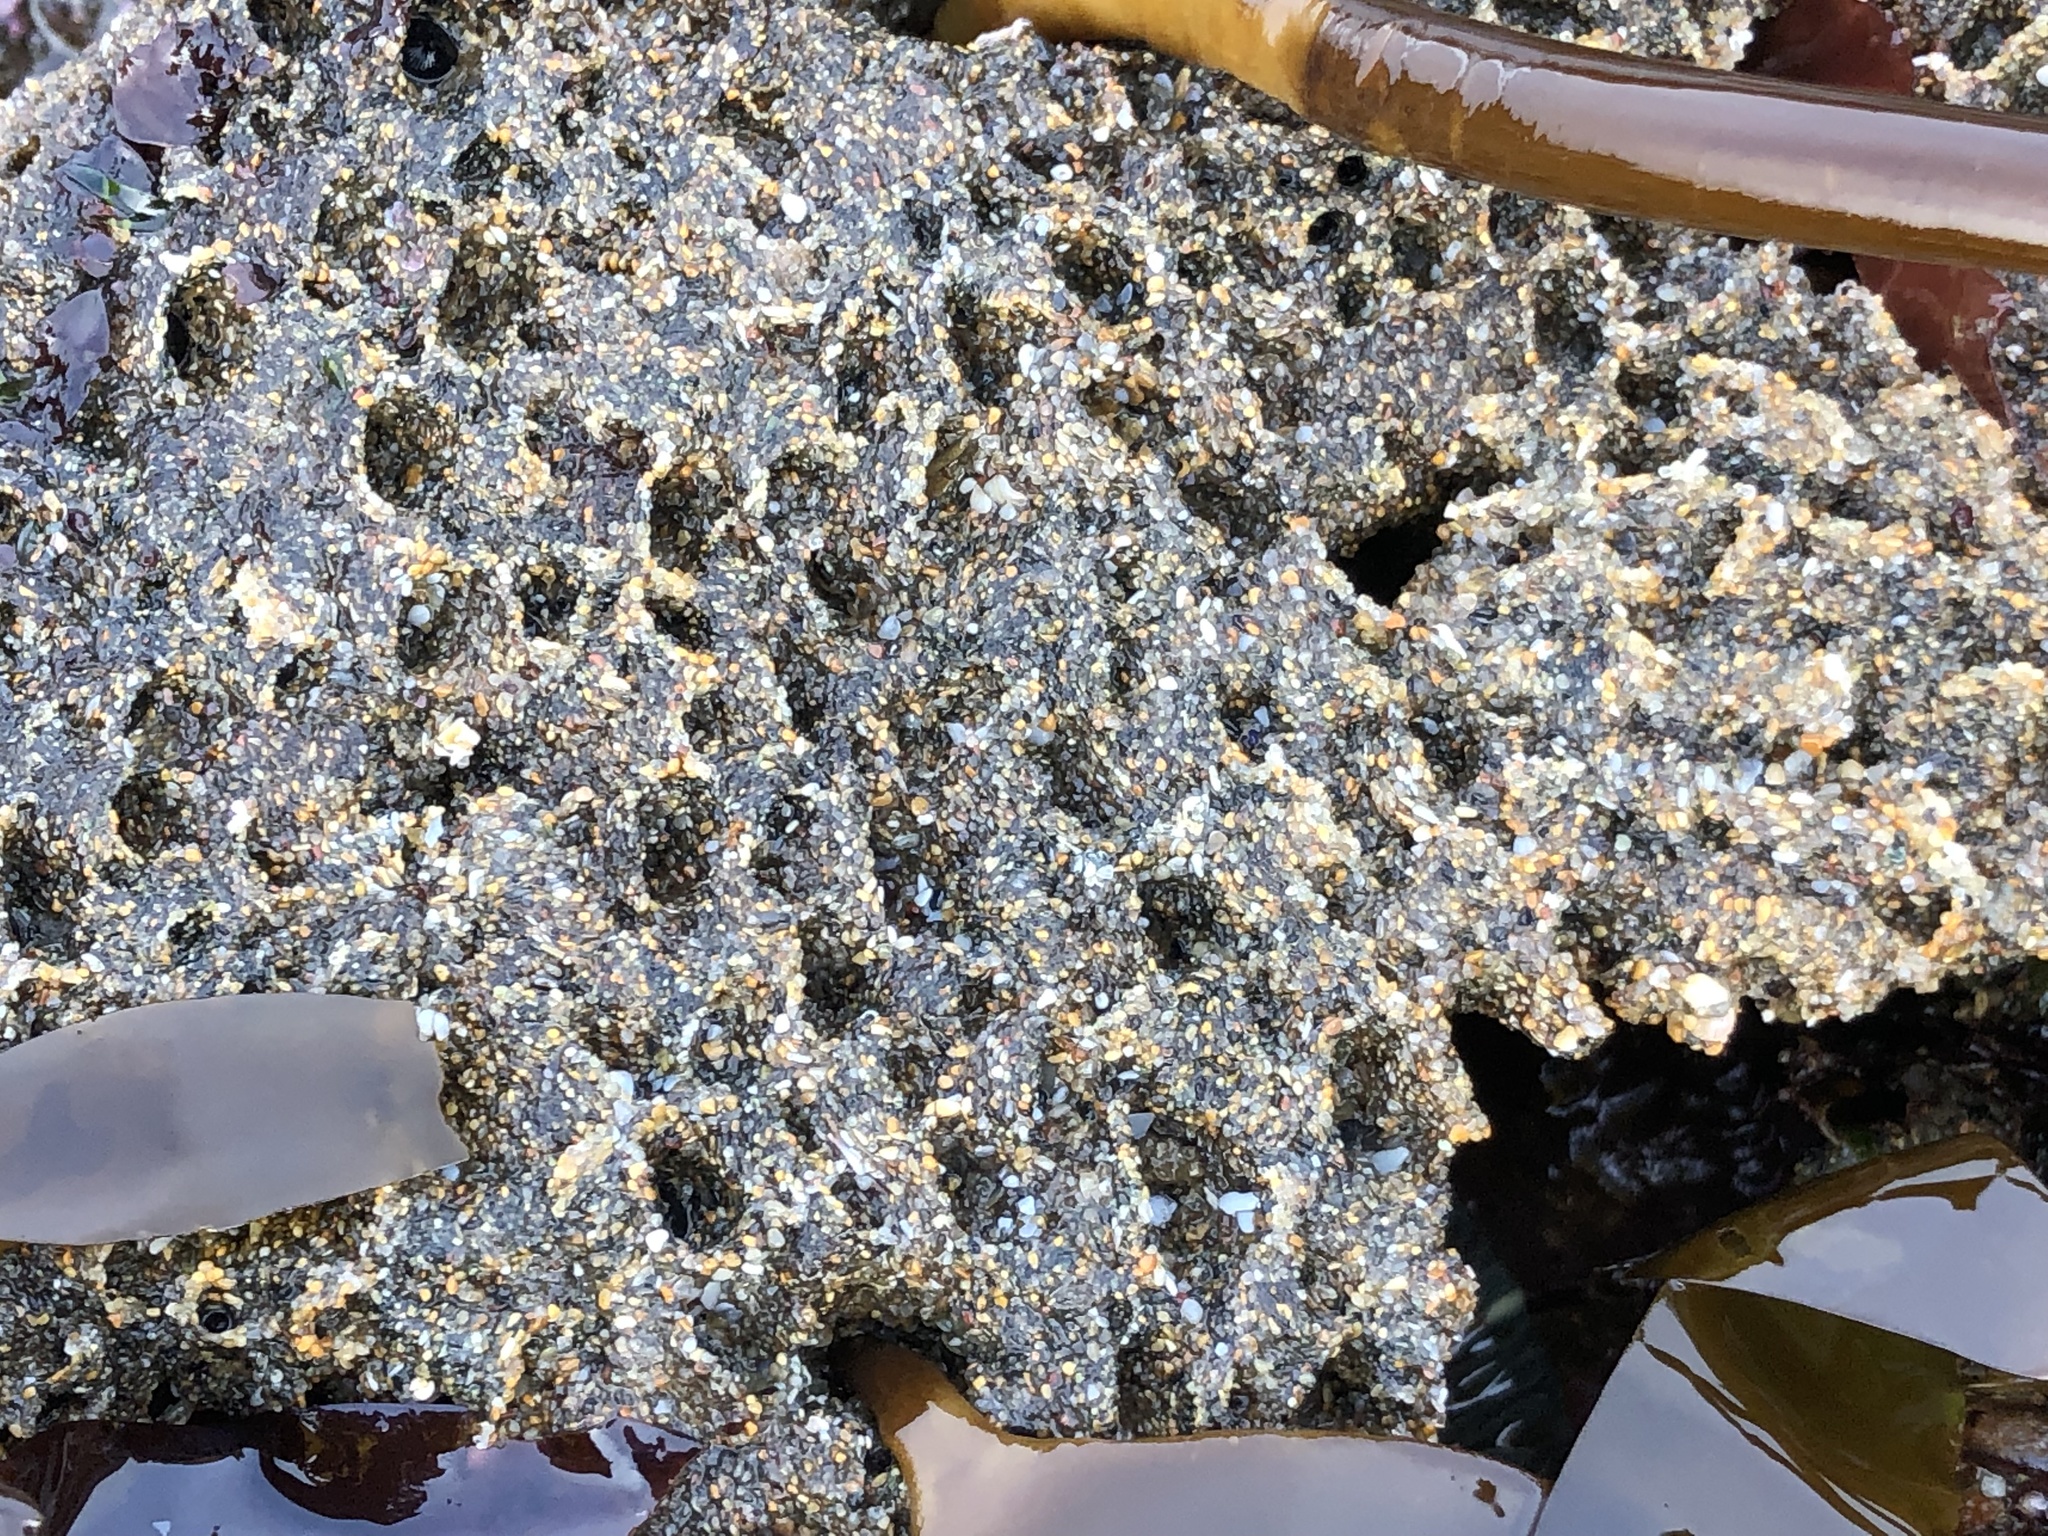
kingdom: Animalia
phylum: Annelida
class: Polychaeta
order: Sabellida
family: Sabellariidae
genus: Phragmatopoma
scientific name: Phragmatopoma californica
